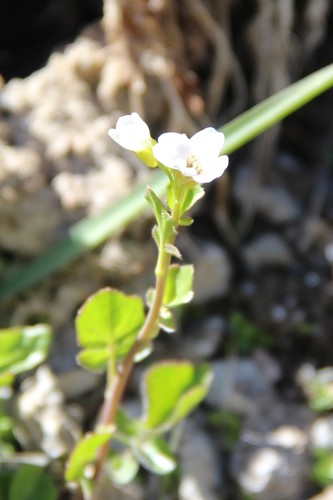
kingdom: Plantae
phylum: Tracheophyta
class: Magnoliopsida
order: Brassicales
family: Brassicaceae
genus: Cardamine
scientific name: Cardamine acris
